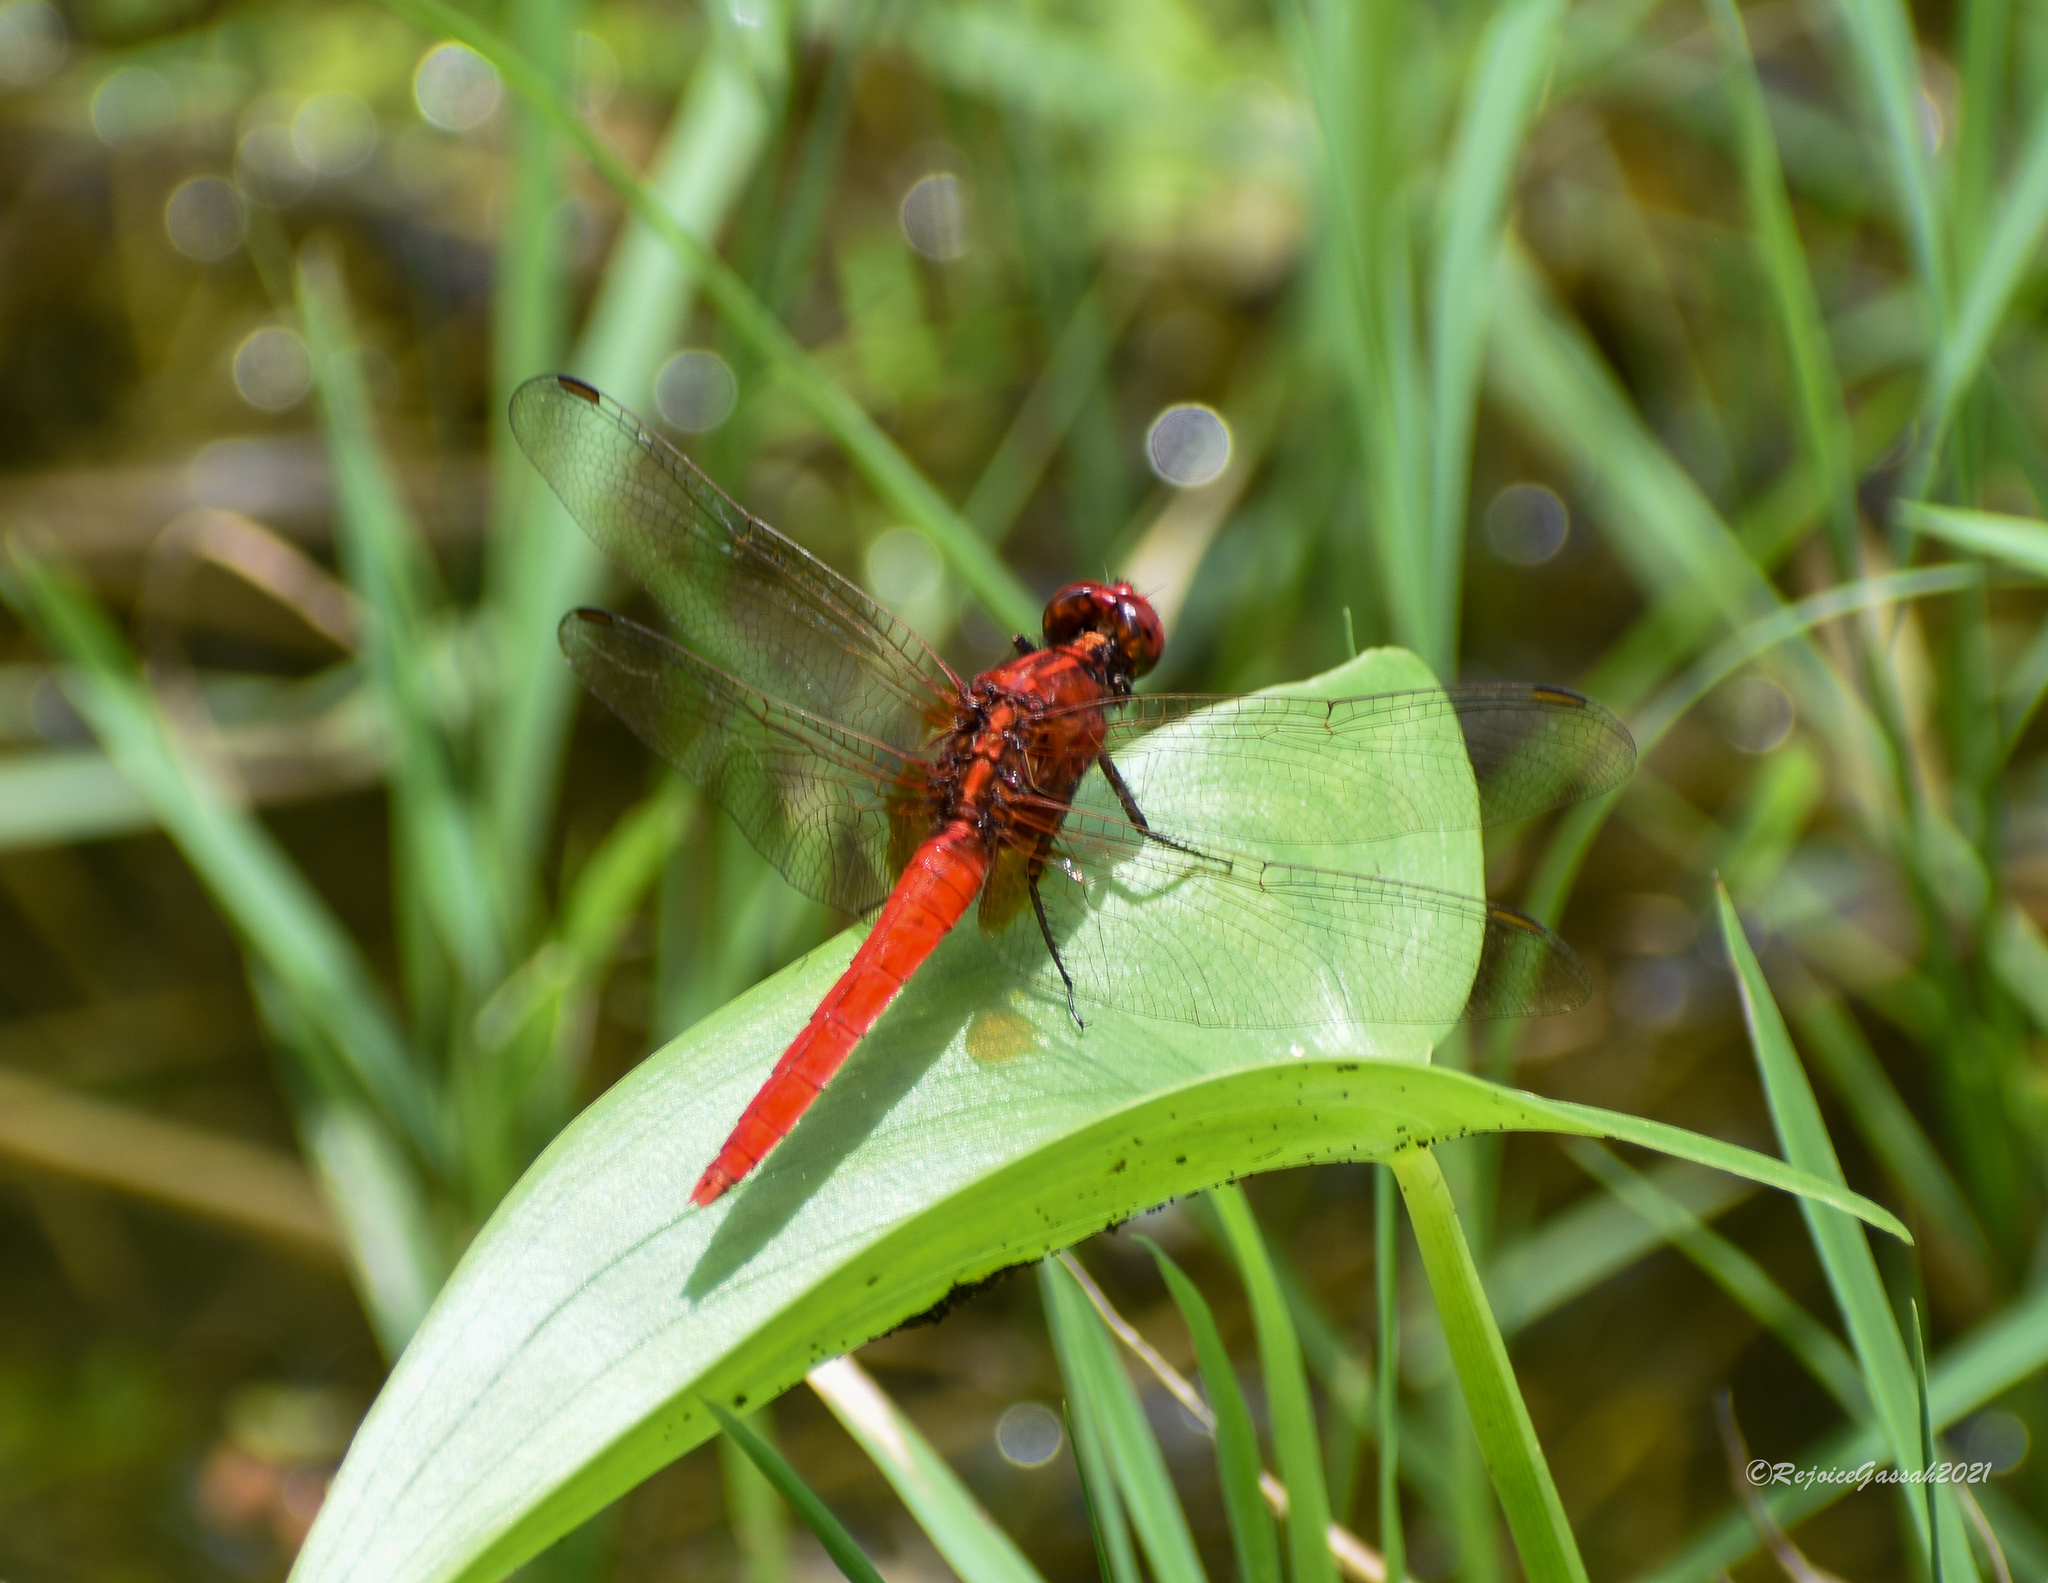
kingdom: Animalia
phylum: Arthropoda
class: Insecta
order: Odonata
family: Libellulidae
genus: Rhodothemis
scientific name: Rhodothemis rufa
